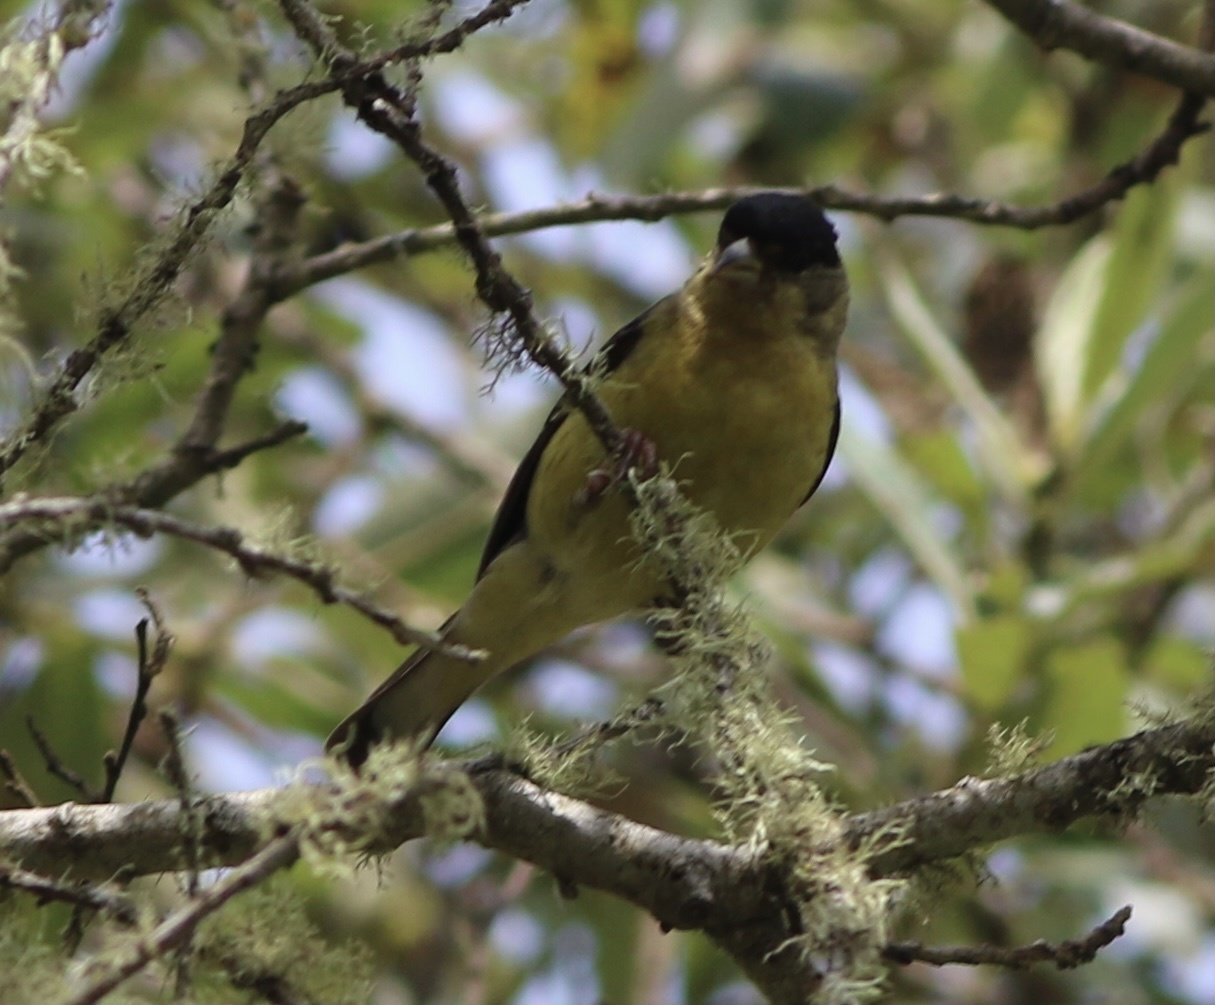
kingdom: Animalia
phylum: Chordata
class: Aves
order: Passeriformes
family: Fringillidae
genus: Spinus
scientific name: Spinus psaltria
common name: Lesser goldfinch
